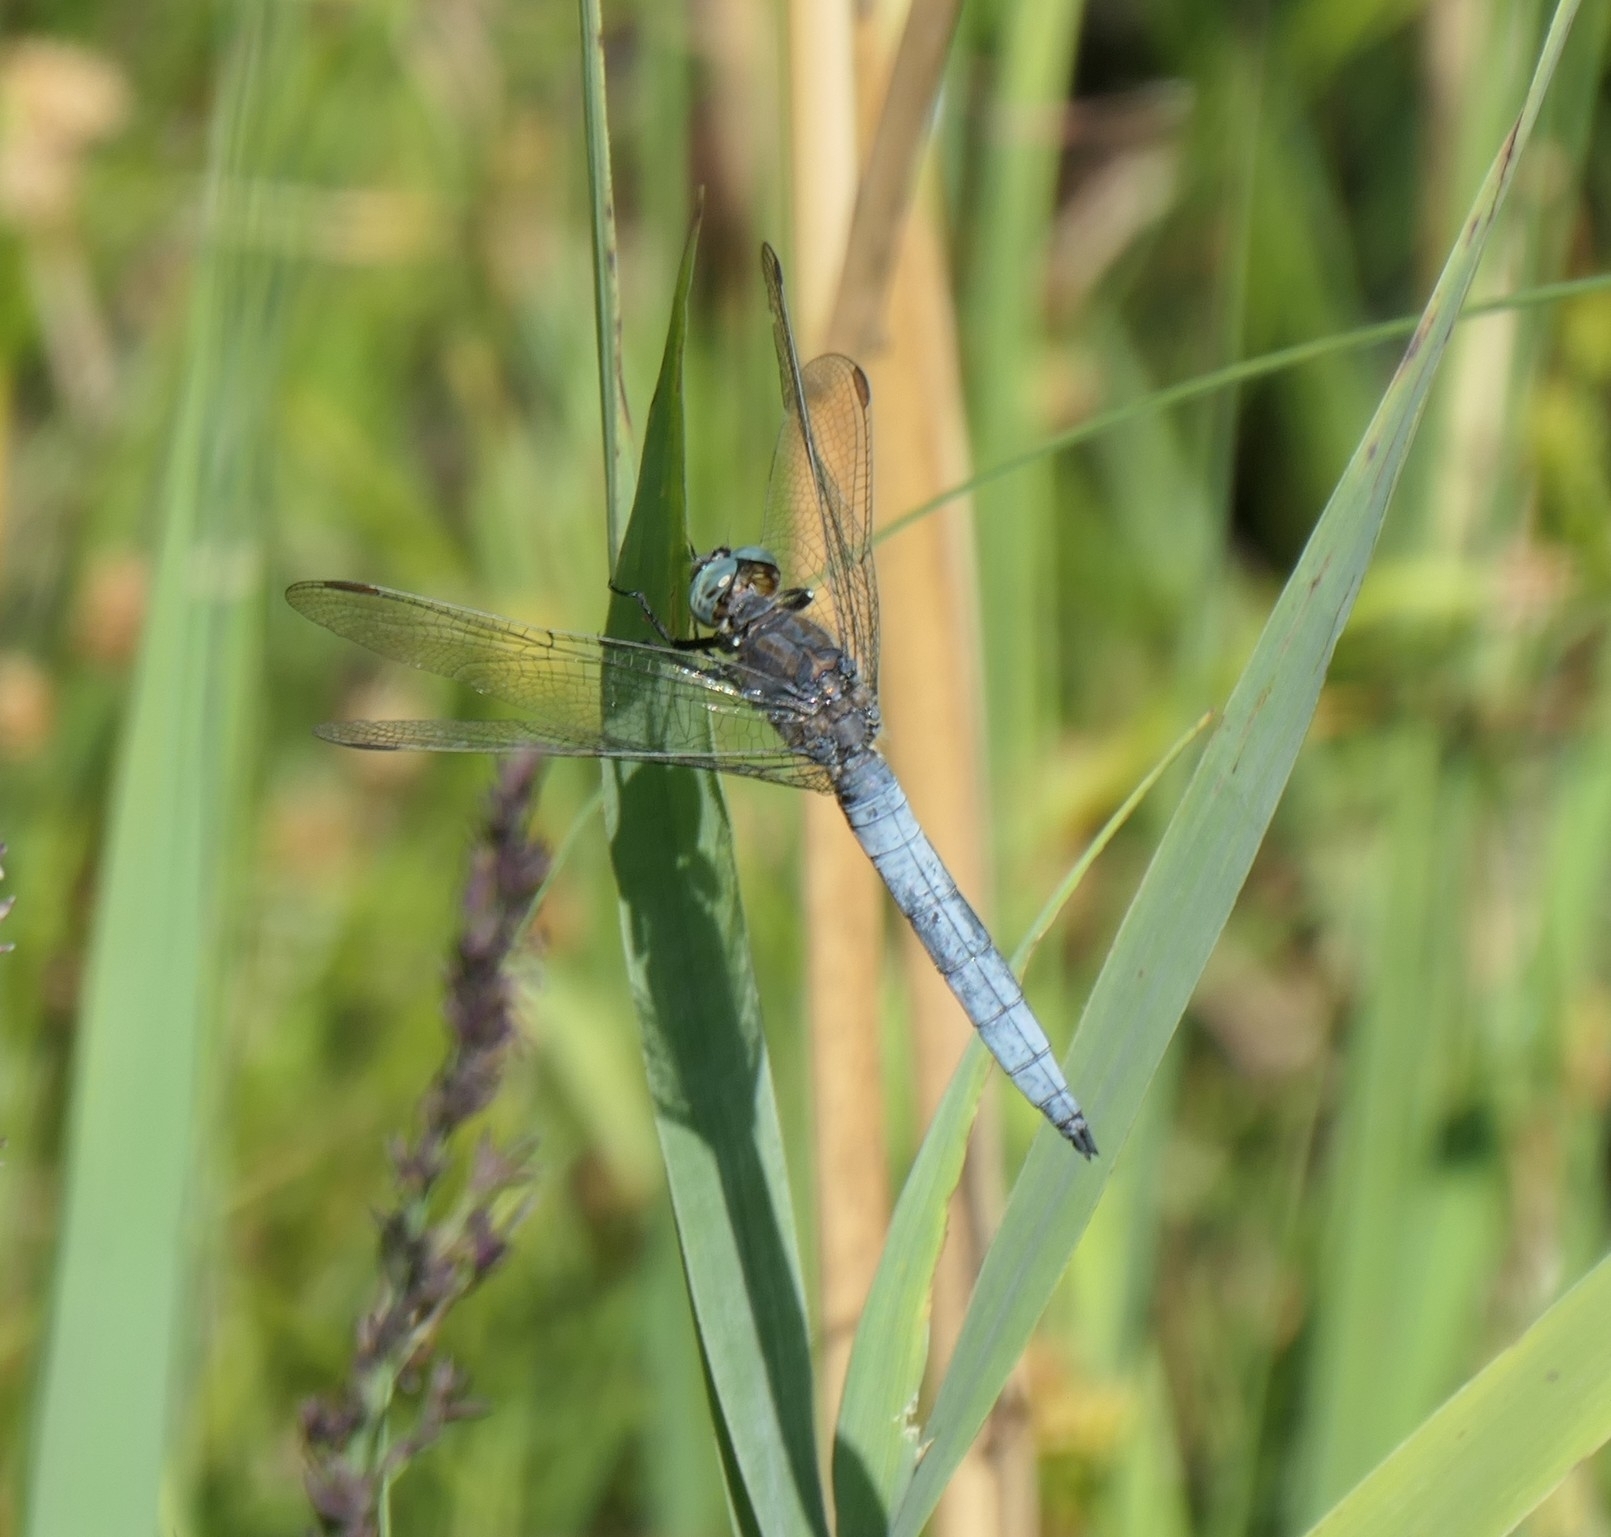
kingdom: Animalia
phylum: Arthropoda
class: Insecta
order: Odonata
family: Libellulidae
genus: Orthetrum
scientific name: Orthetrum coerulescens
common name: Keeled skimmer
